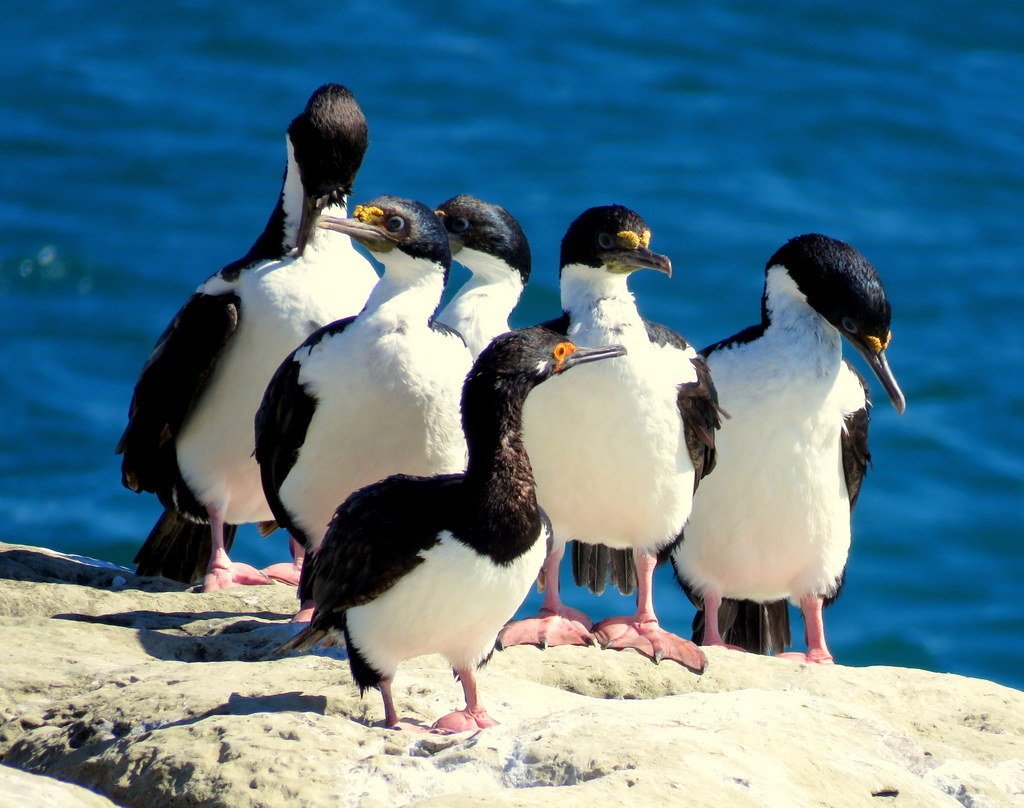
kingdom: Animalia
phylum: Chordata
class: Aves
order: Suliformes
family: Phalacrocoracidae
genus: Phalacrocorax
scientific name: Phalacrocorax magellanicus
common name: Rock shag
